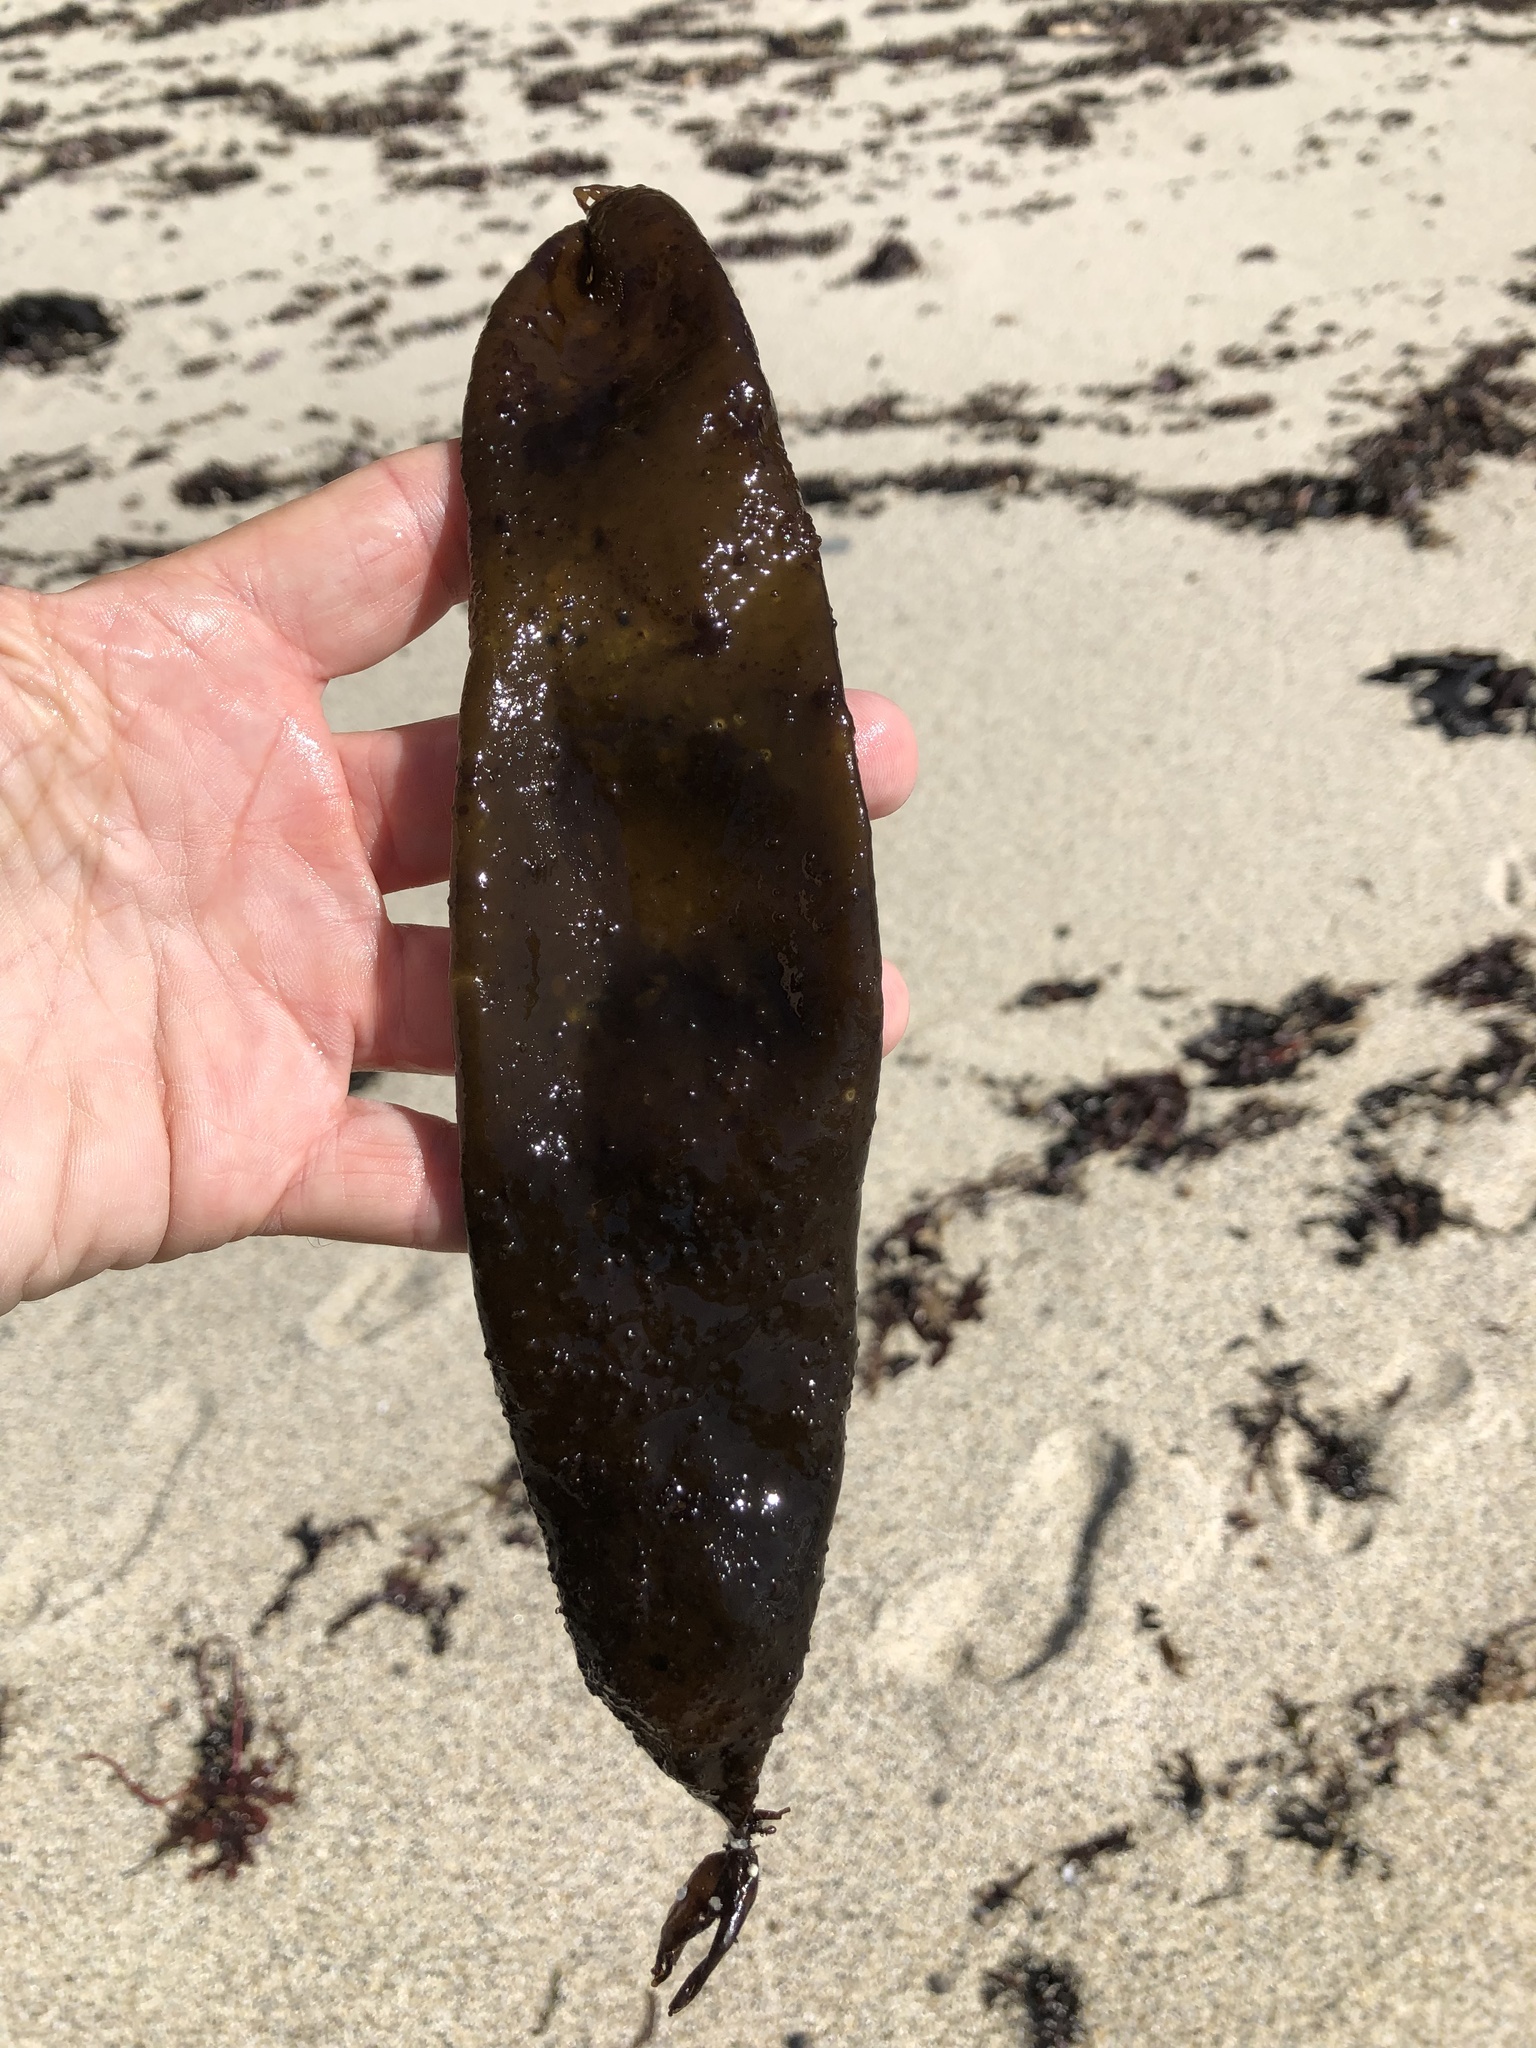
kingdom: Plantae
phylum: Rhodophyta
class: Florideophyceae
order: Palmariales
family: Palmariaceae
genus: Halosaccion
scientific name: Halosaccion glandiforme
